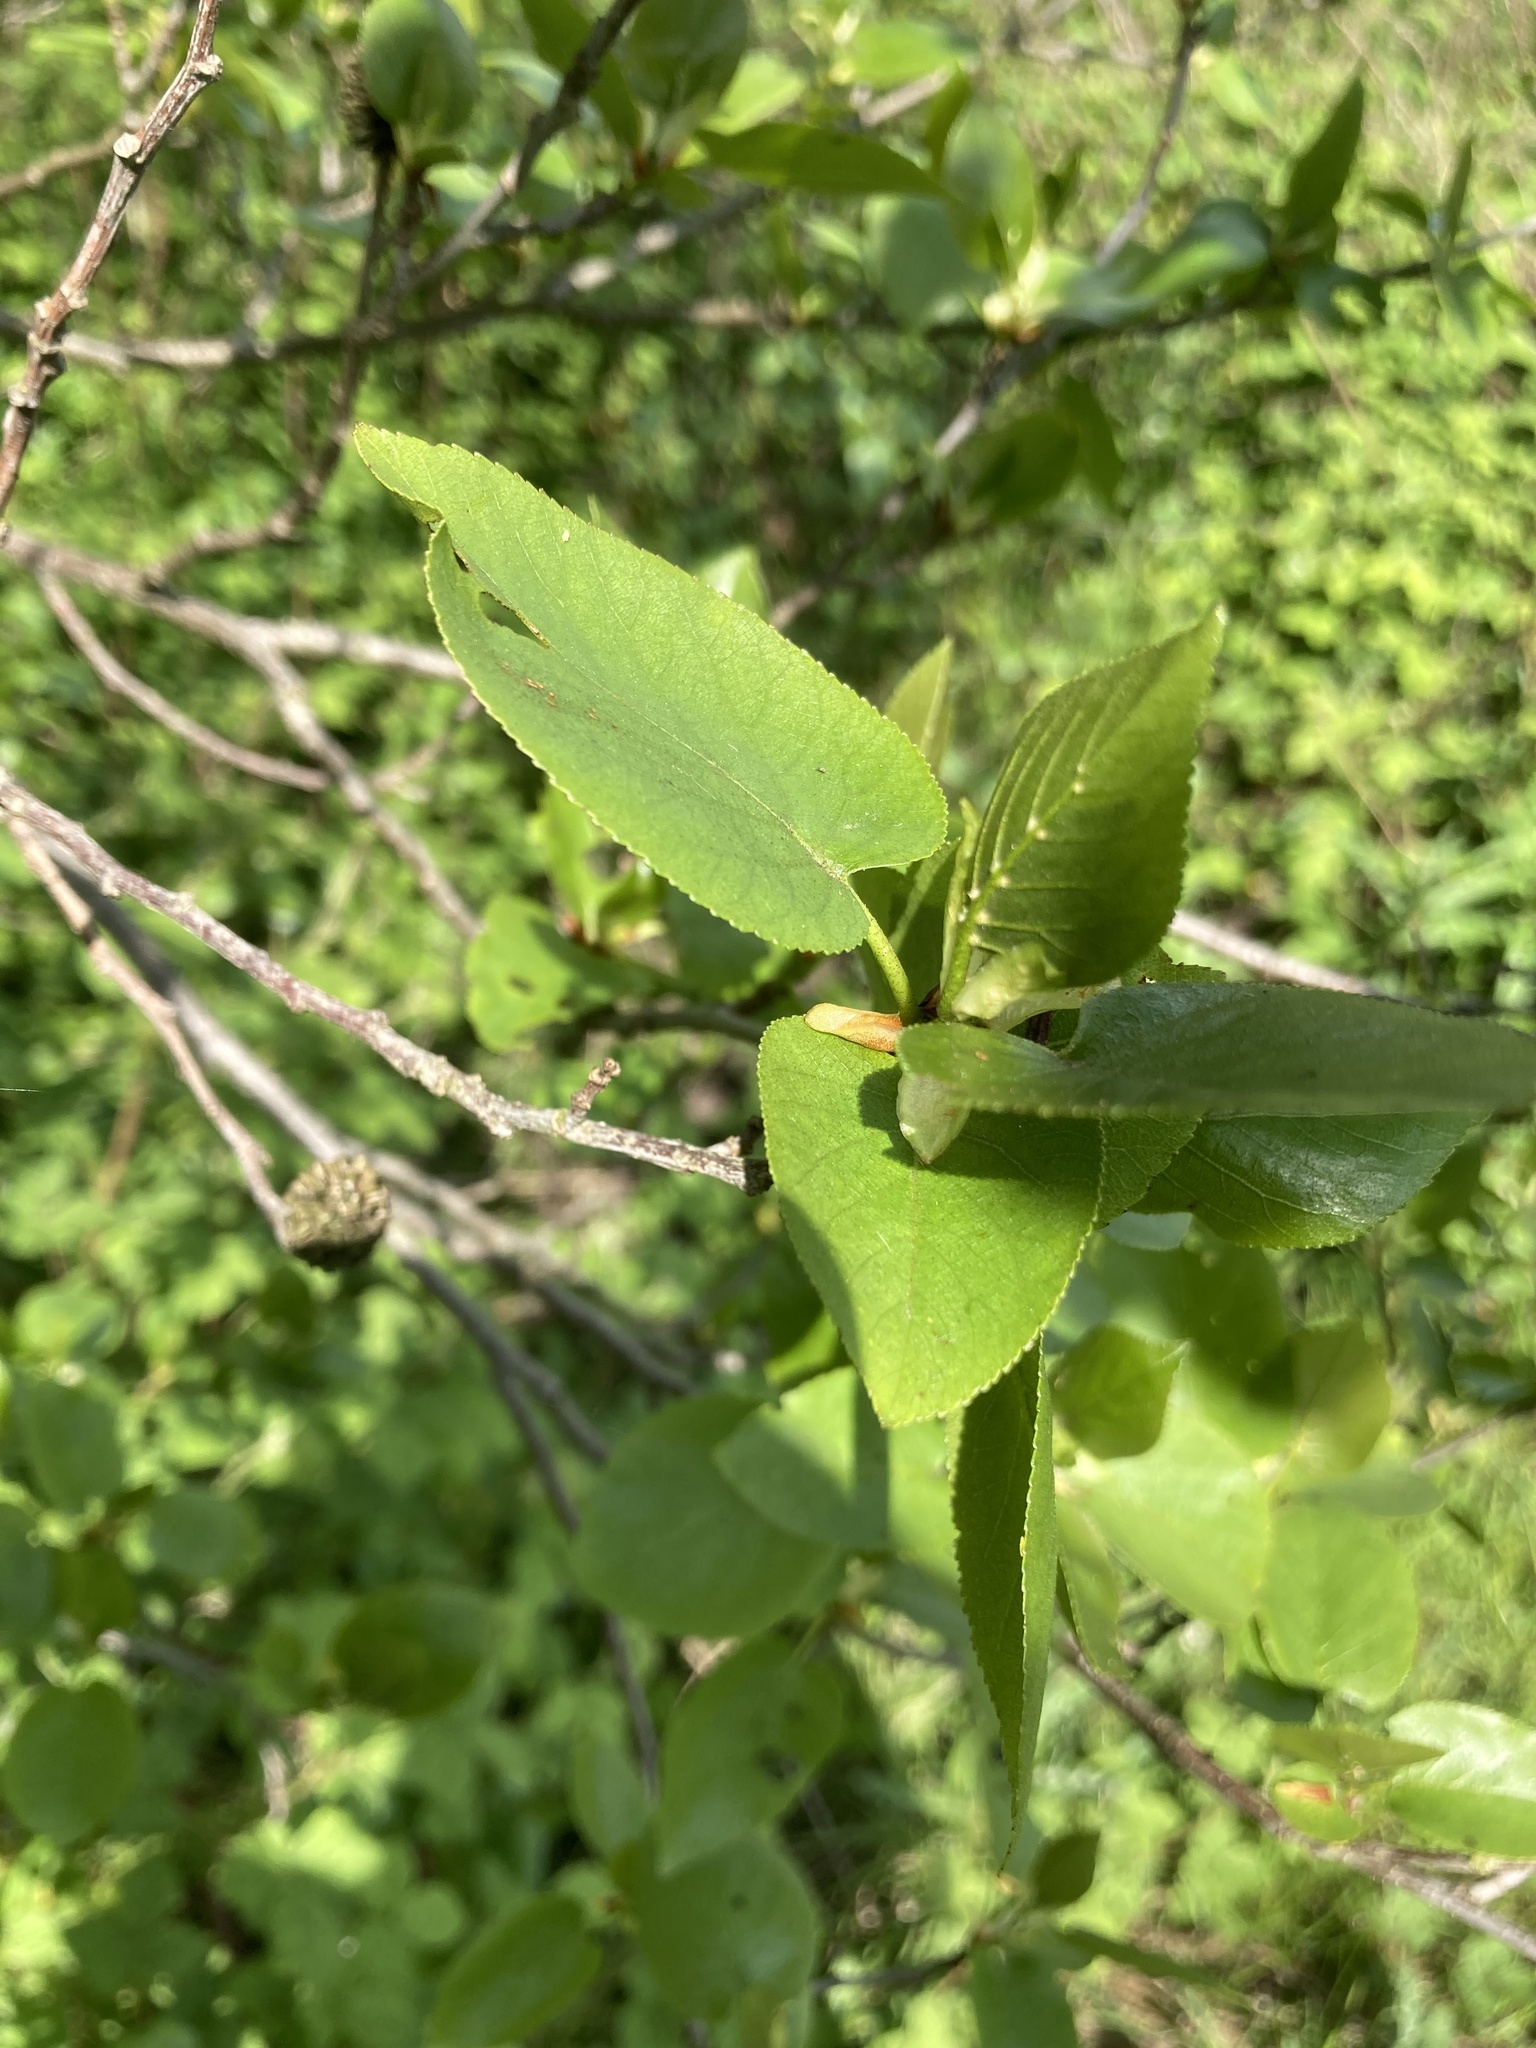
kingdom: Plantae
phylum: Tracheophyta
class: Magnoliopsida
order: Fagales
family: Betulaceae
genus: Alnus
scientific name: Alnus cordata
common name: Italian alder
